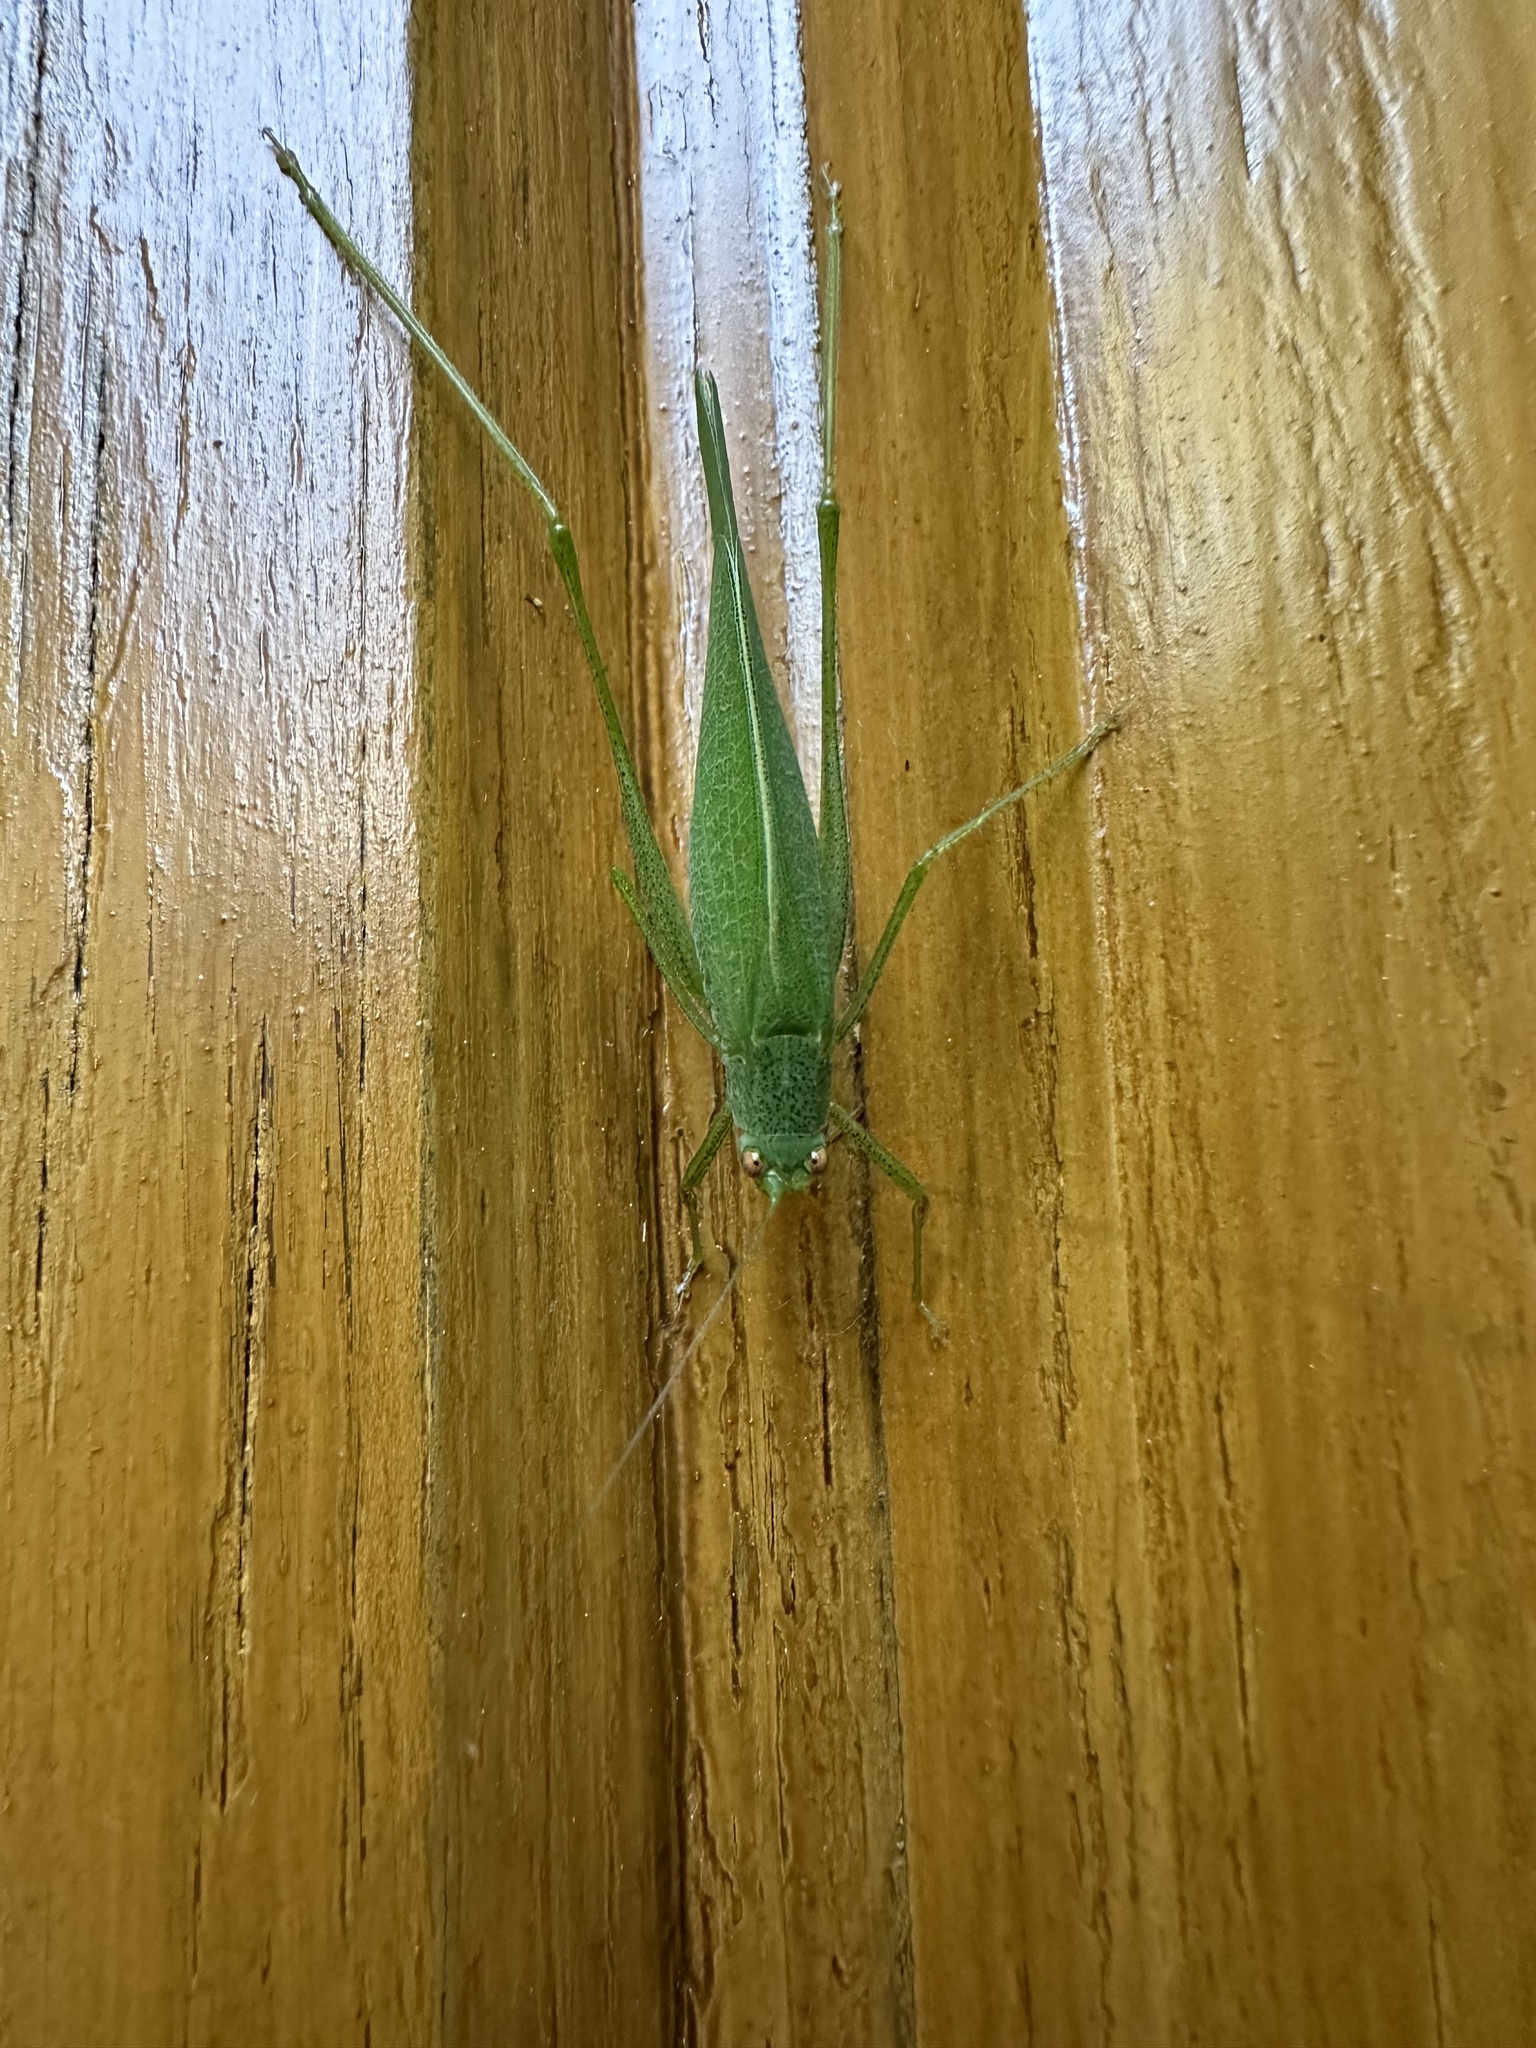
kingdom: Animalia
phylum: Arthropoda
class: Insecta
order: Orthoptera
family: Tettigoniidae
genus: Phaneroptera
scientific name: Phaneroptera nana
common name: Southern sickle bush-cricket
